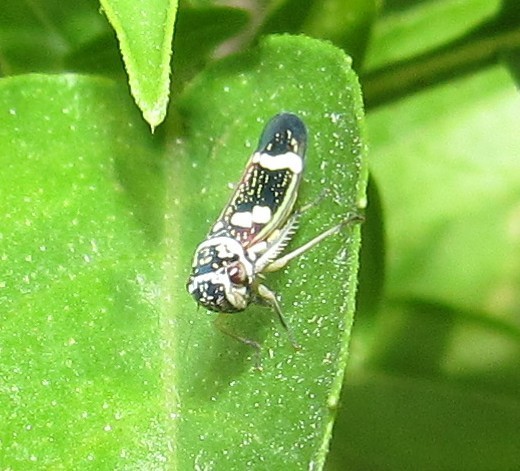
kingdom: Animalia
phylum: Arthropoda
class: Insecta
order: Hemiptera
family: Cicadellidae
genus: Macugonalia
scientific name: Macugonalia leucomelas
